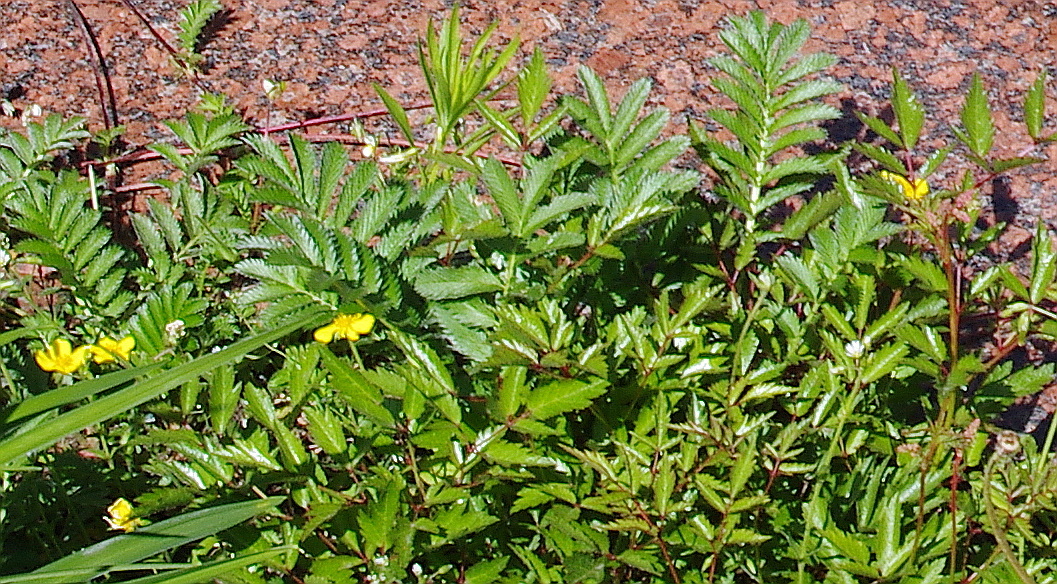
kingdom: Plantae
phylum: Tracheophyta
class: Magnoliopsida
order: Rosales
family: Rosaceae
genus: Argentina
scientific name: Argentina anserina
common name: Common silverweed
